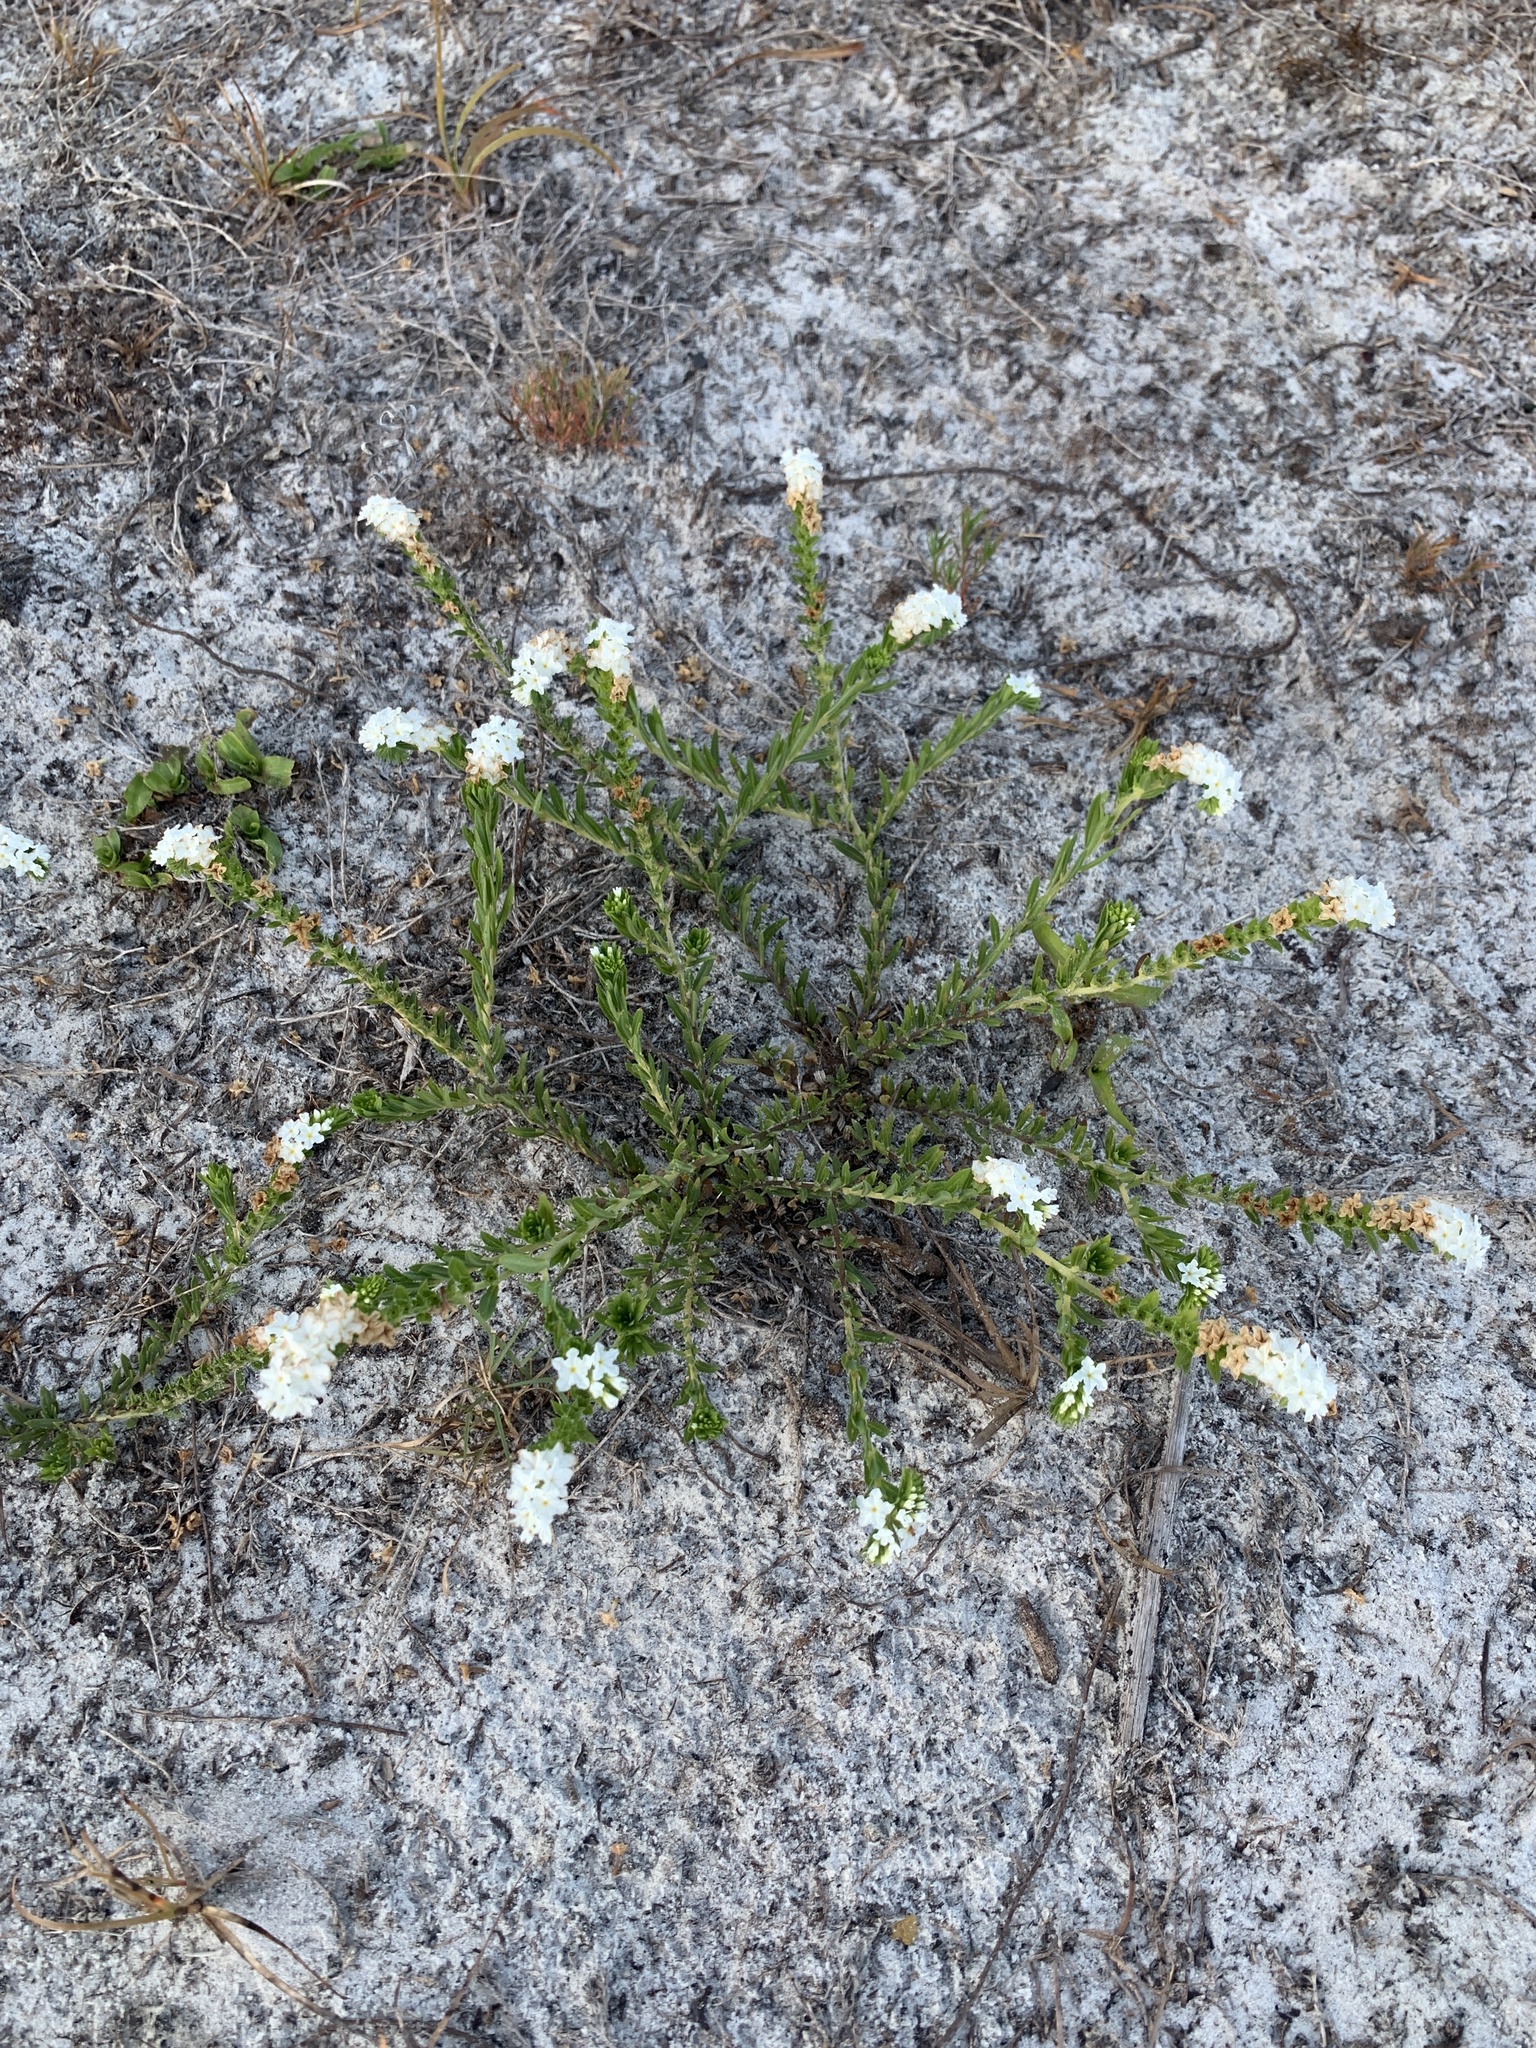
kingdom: Plantae
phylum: Tracheophyta
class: Magnoliopsida
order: Boraginales
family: Heliotropiaceae
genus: Euploca
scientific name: Euploca polyphylla
